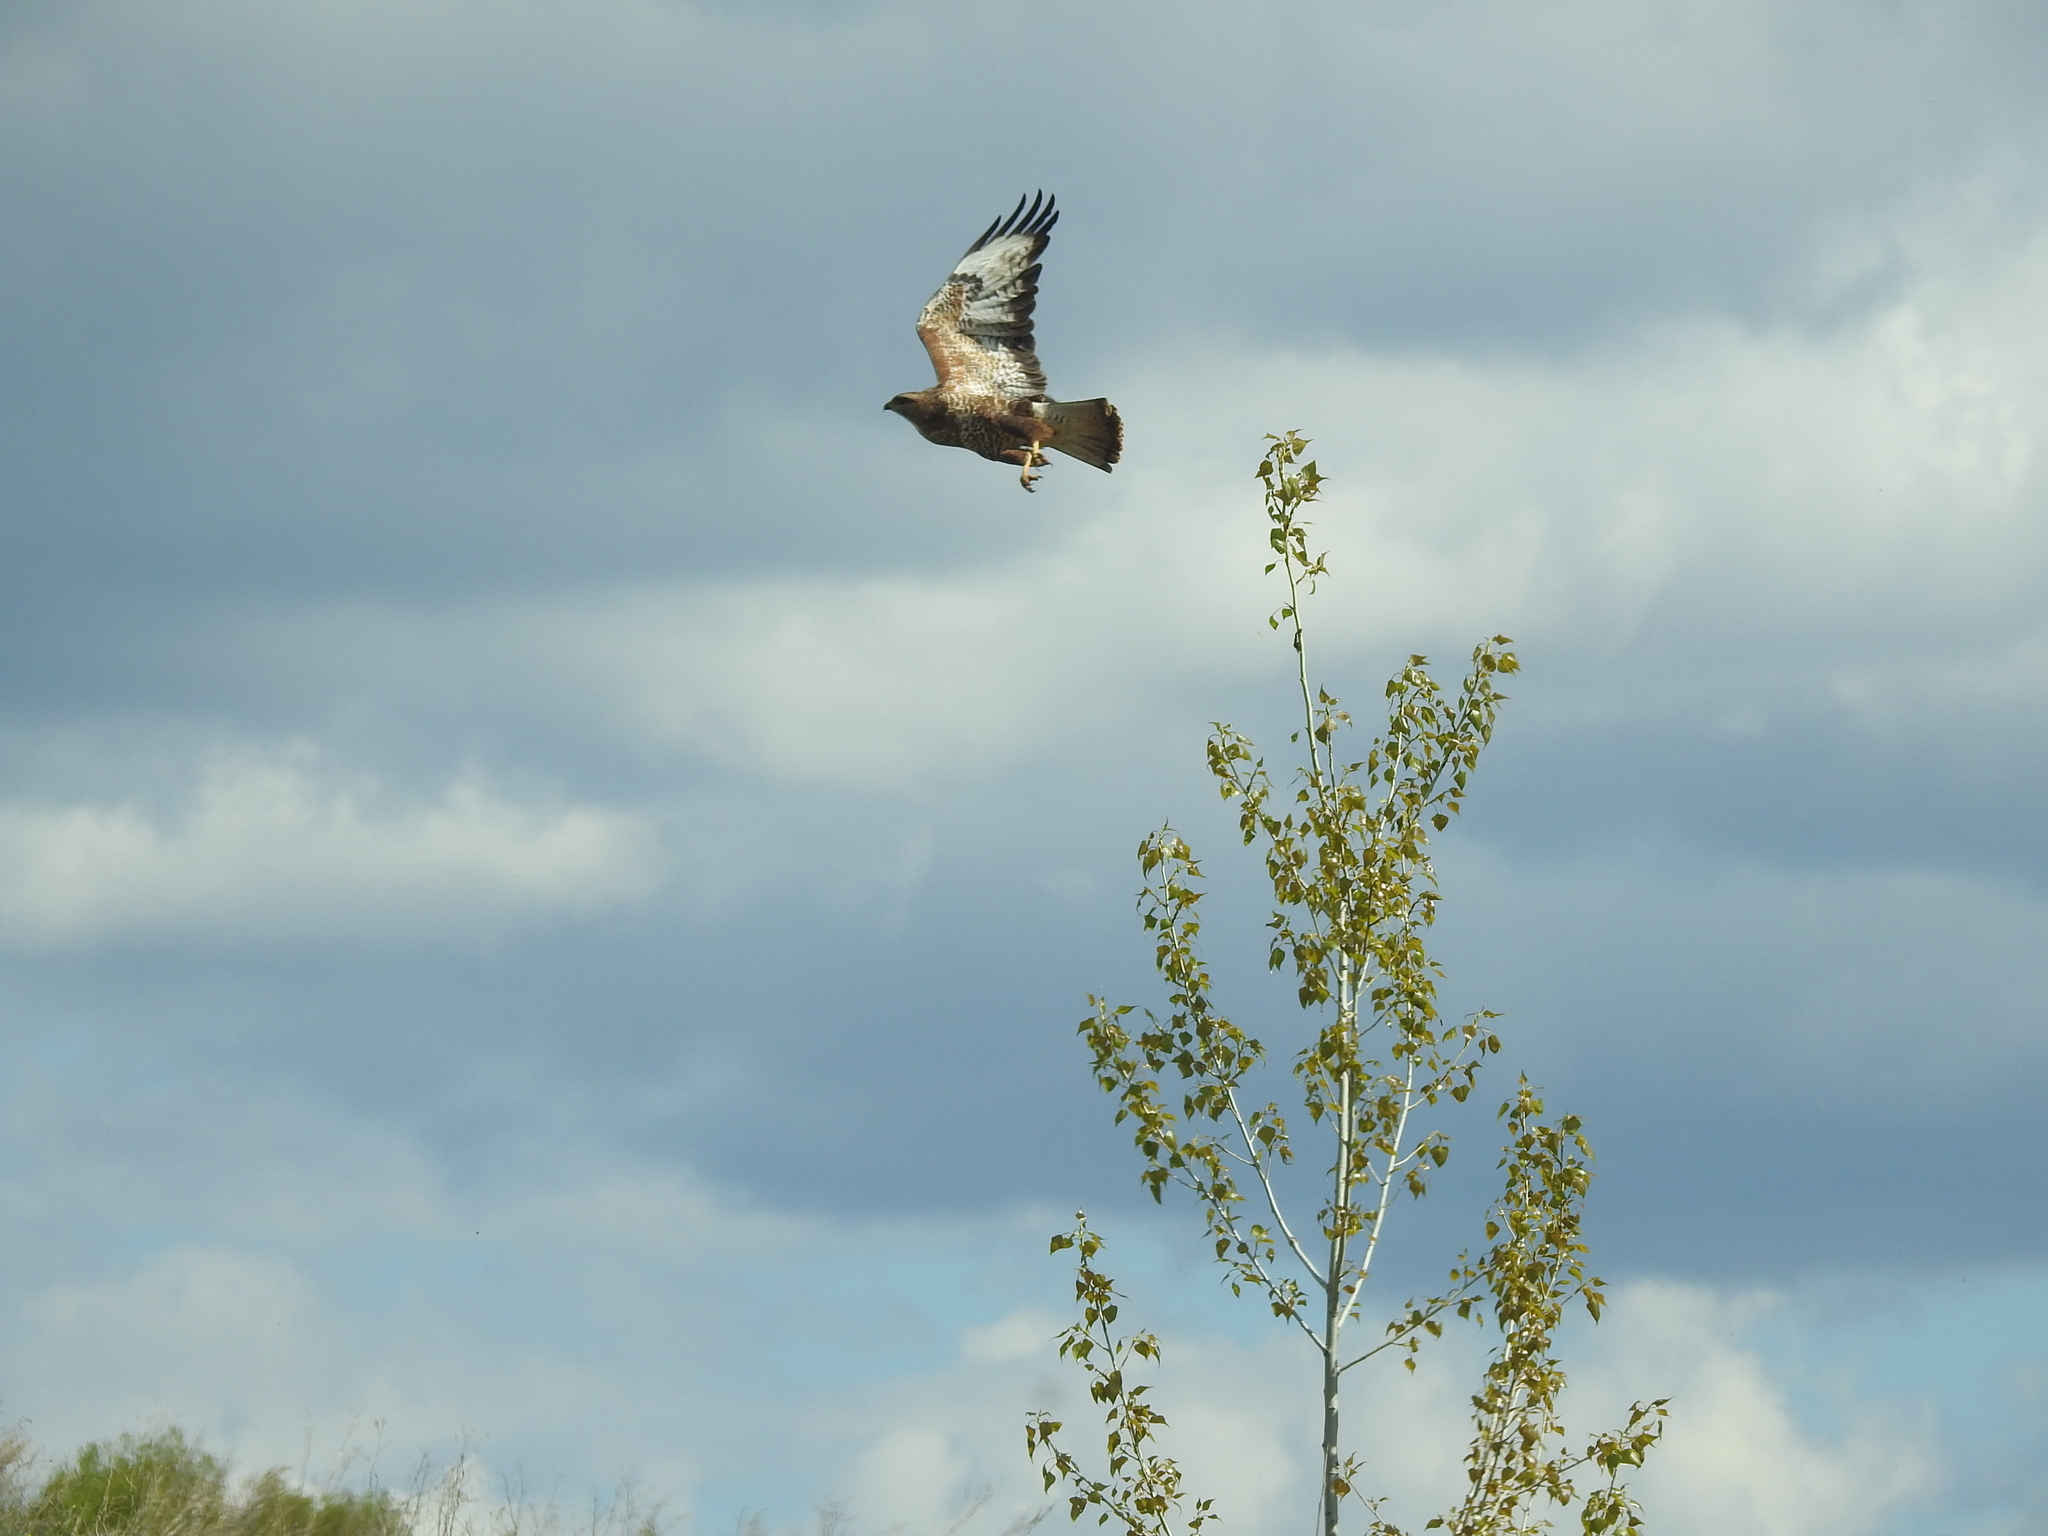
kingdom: Animalia
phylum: Chordata
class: Aves
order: Accipitriformes
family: Accipitridae
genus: Buteo
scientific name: Buteo buteo
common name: Common buzzard
